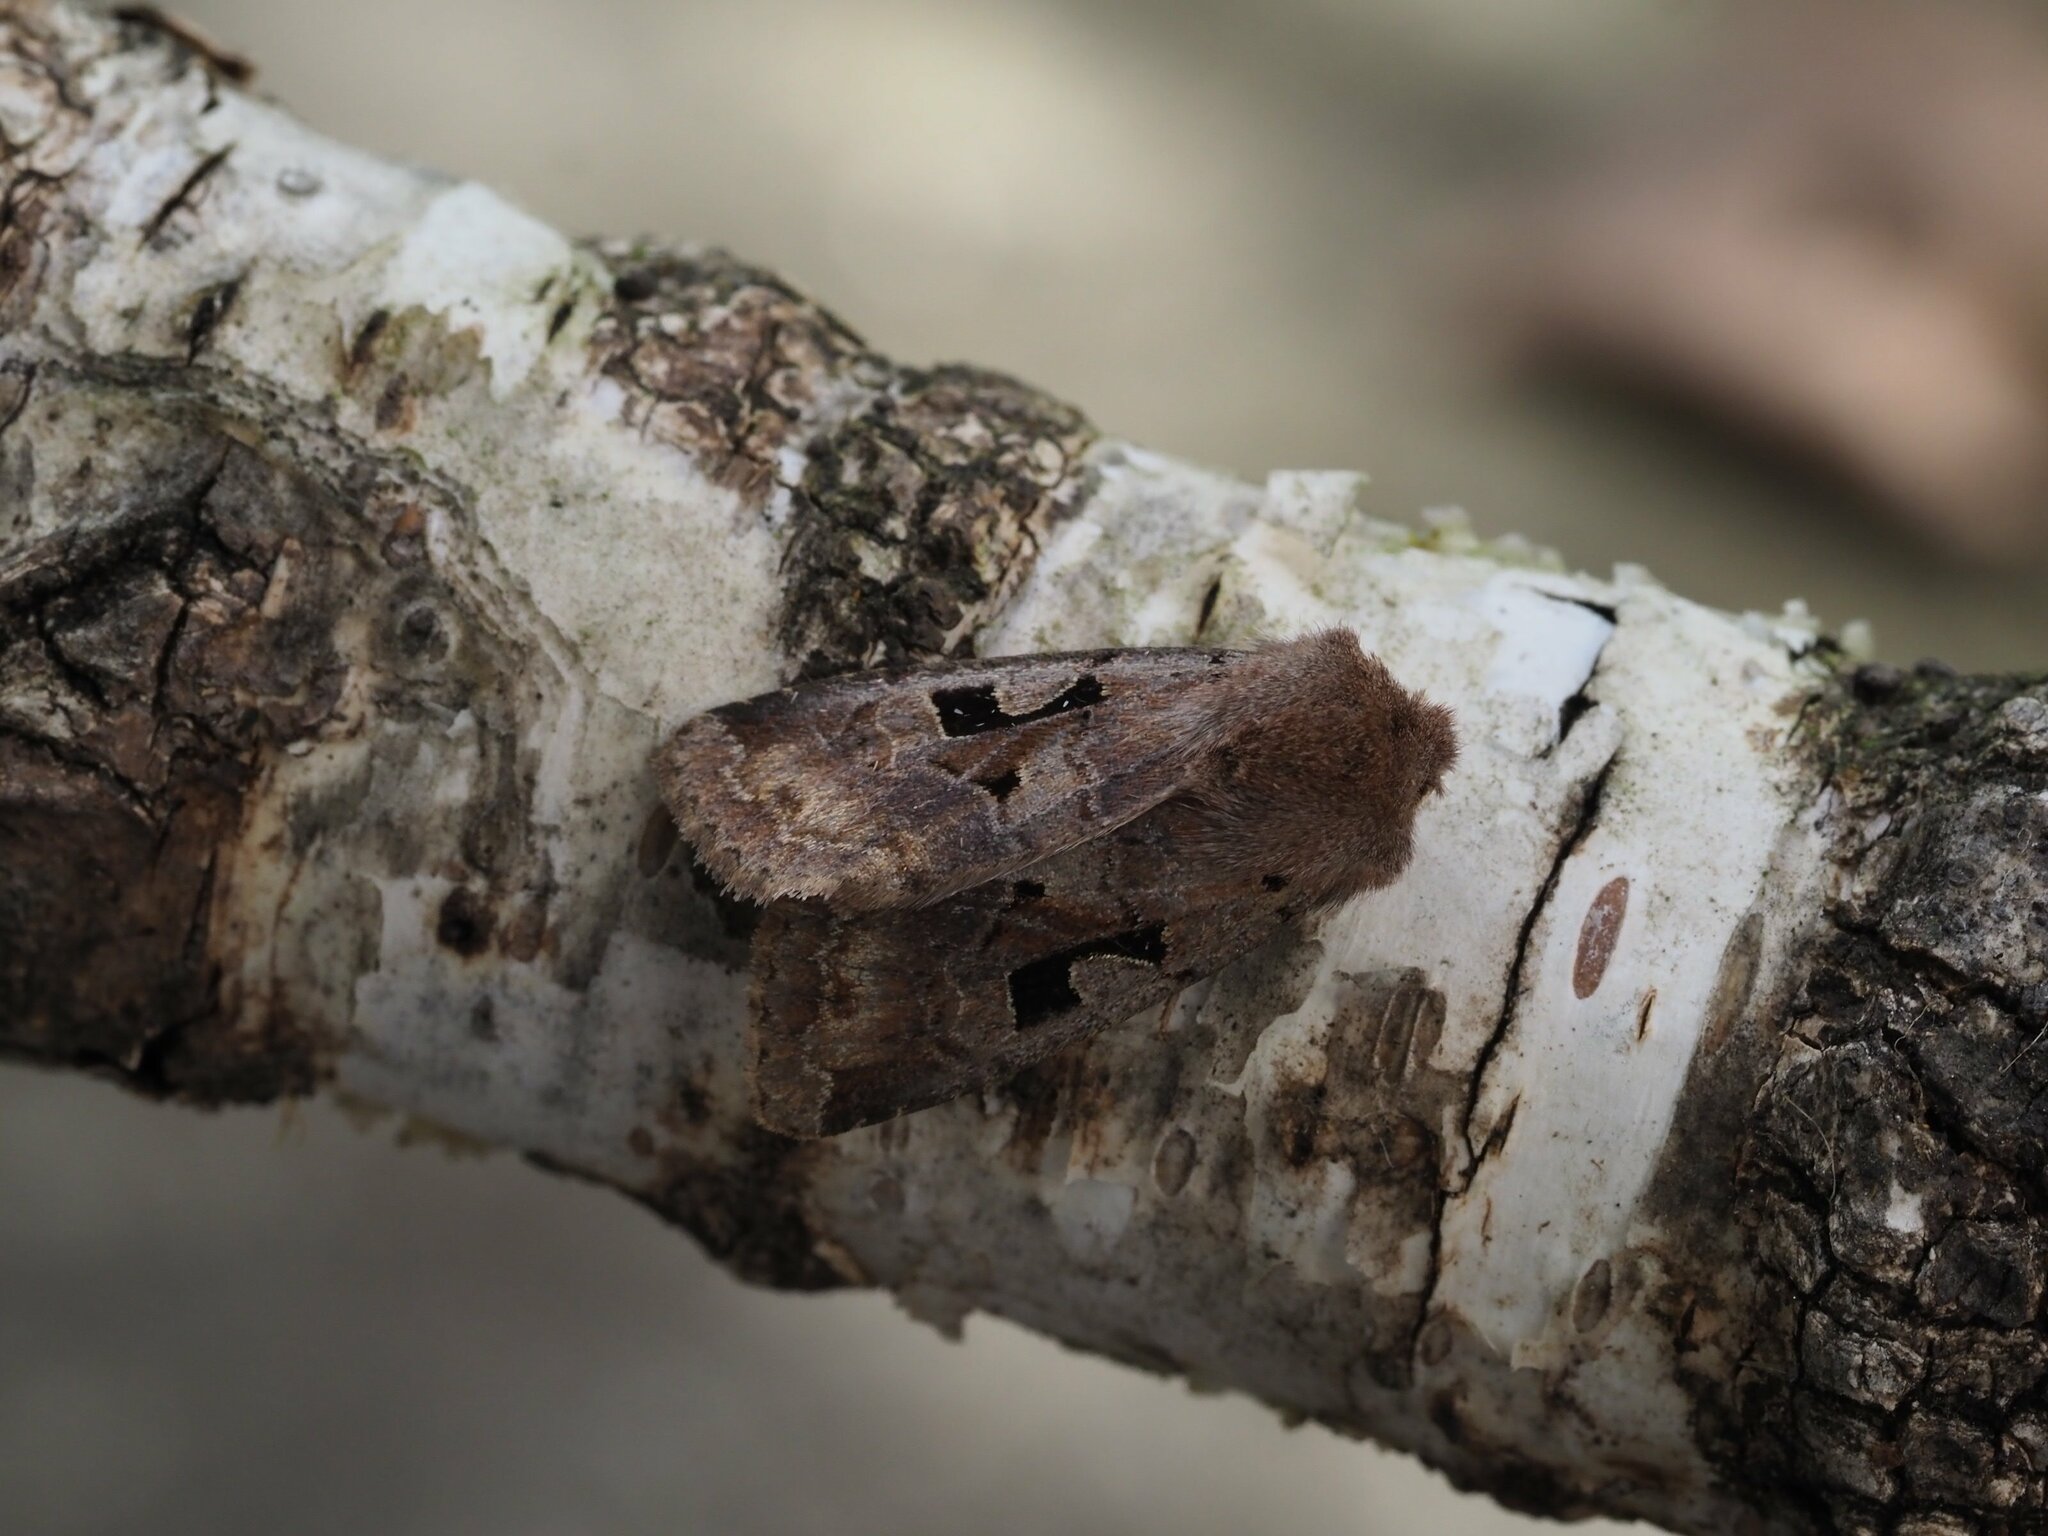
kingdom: Animalia
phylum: Arthropoda
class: Insecta
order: Lepidoptera
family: Noctuidae
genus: Orthosia
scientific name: Orthosia gothica
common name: Hebrew character
